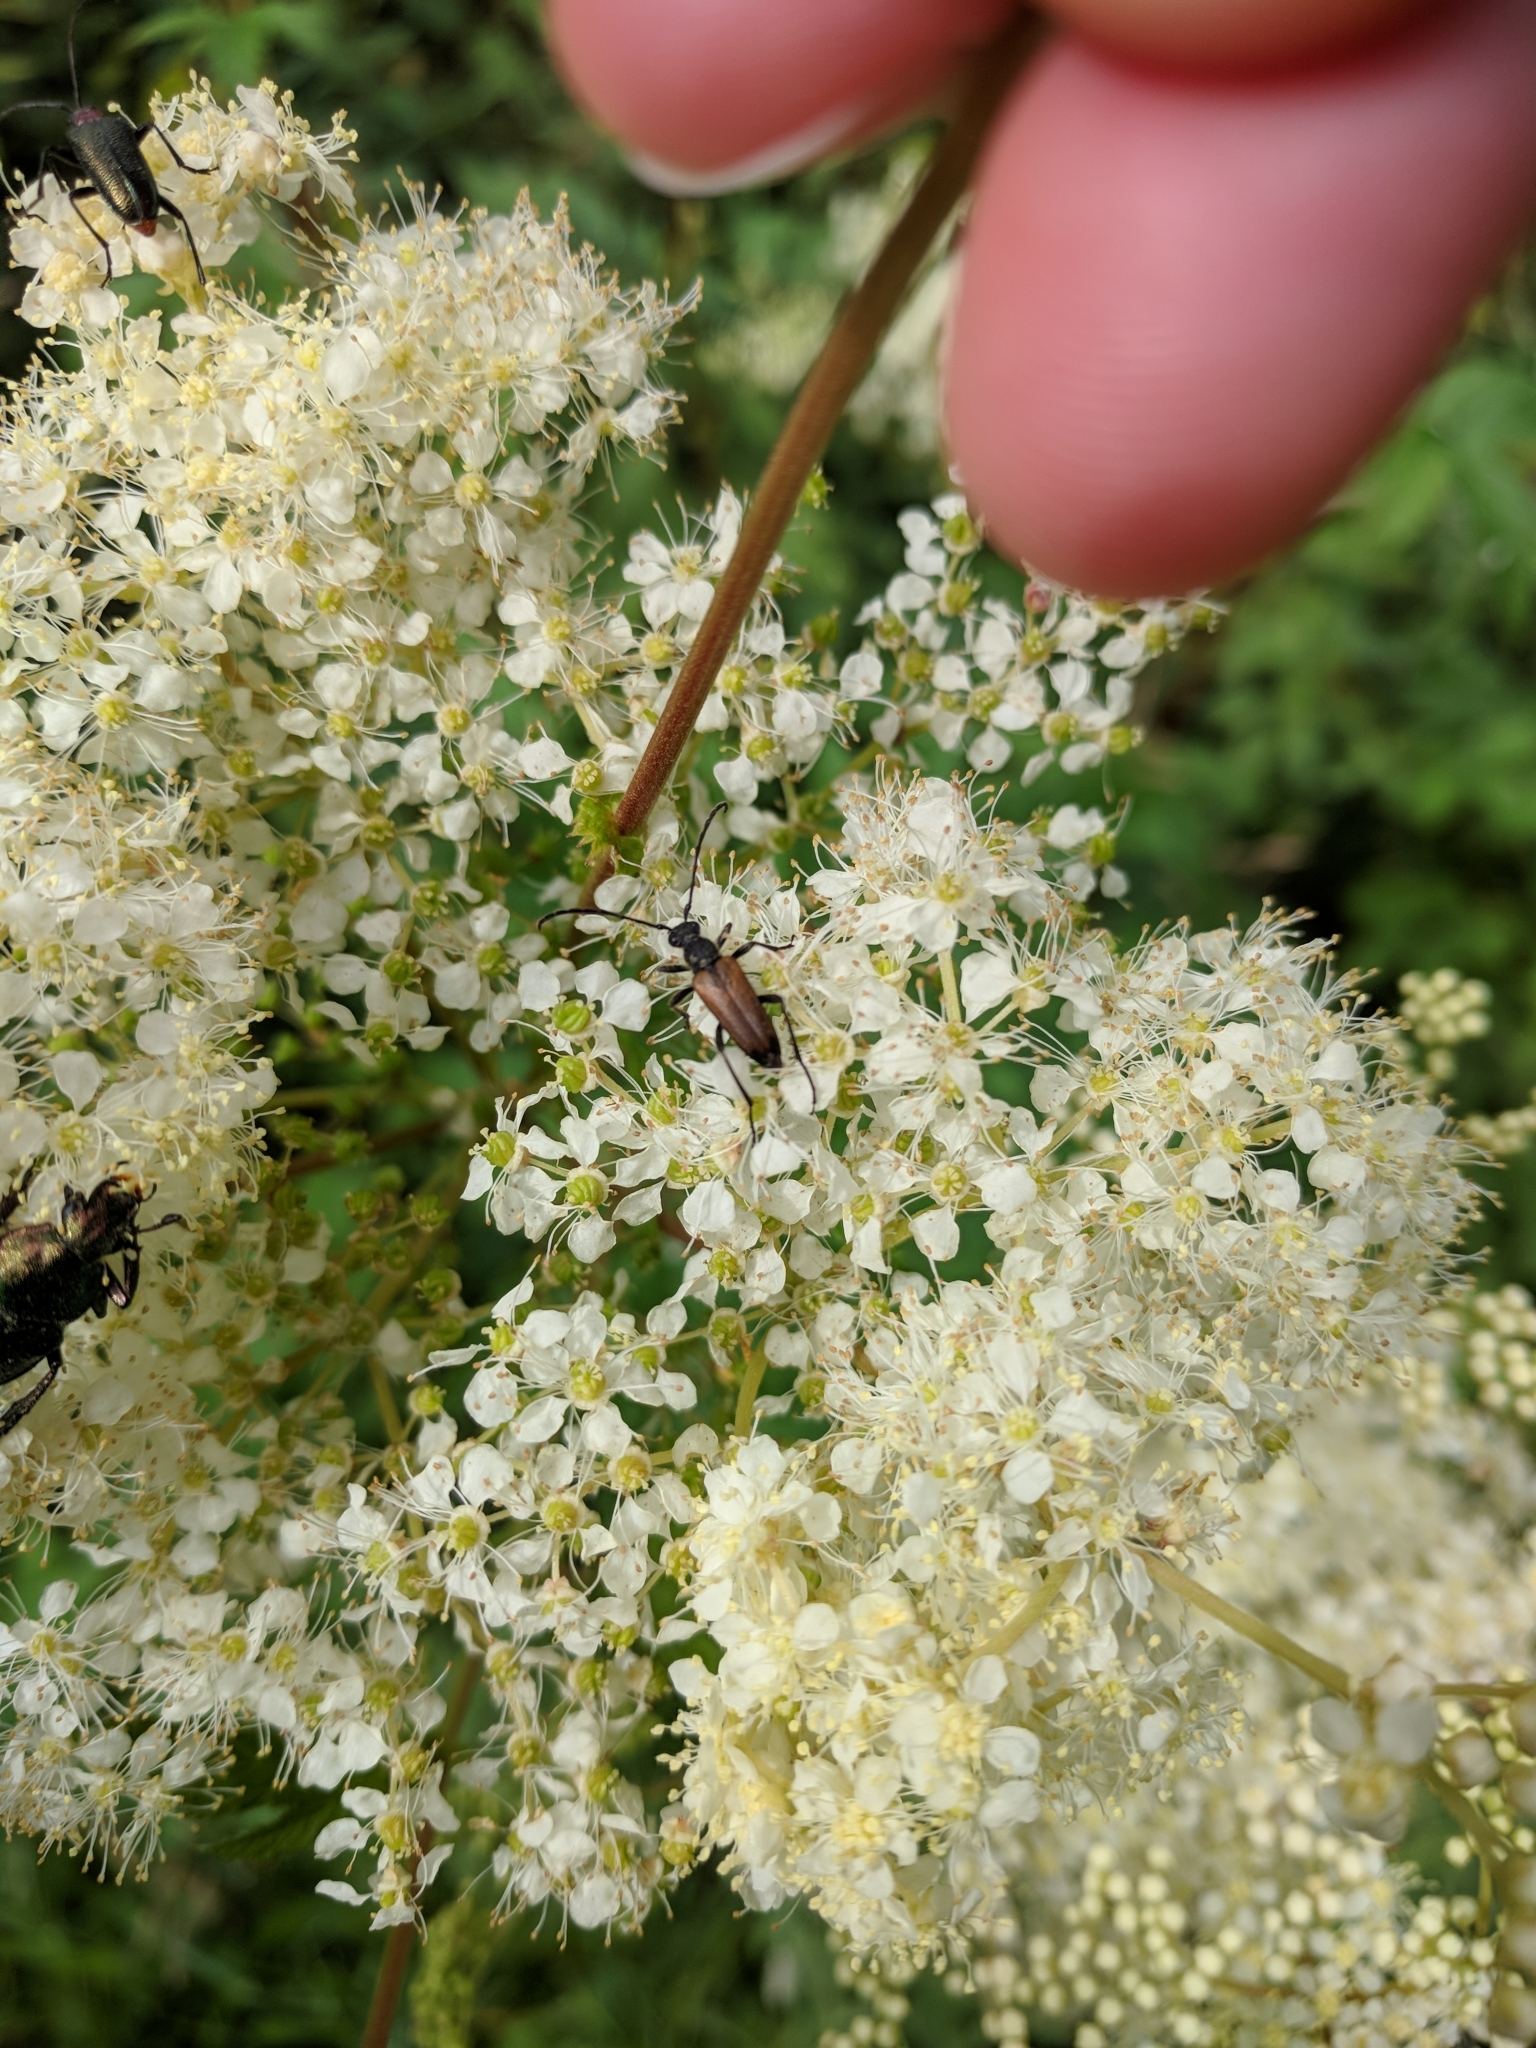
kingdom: Animalia
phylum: Arthropoda
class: Insecta
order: Coleoptera
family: Cerambycidae
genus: Stenurella
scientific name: Stenurella melanura
